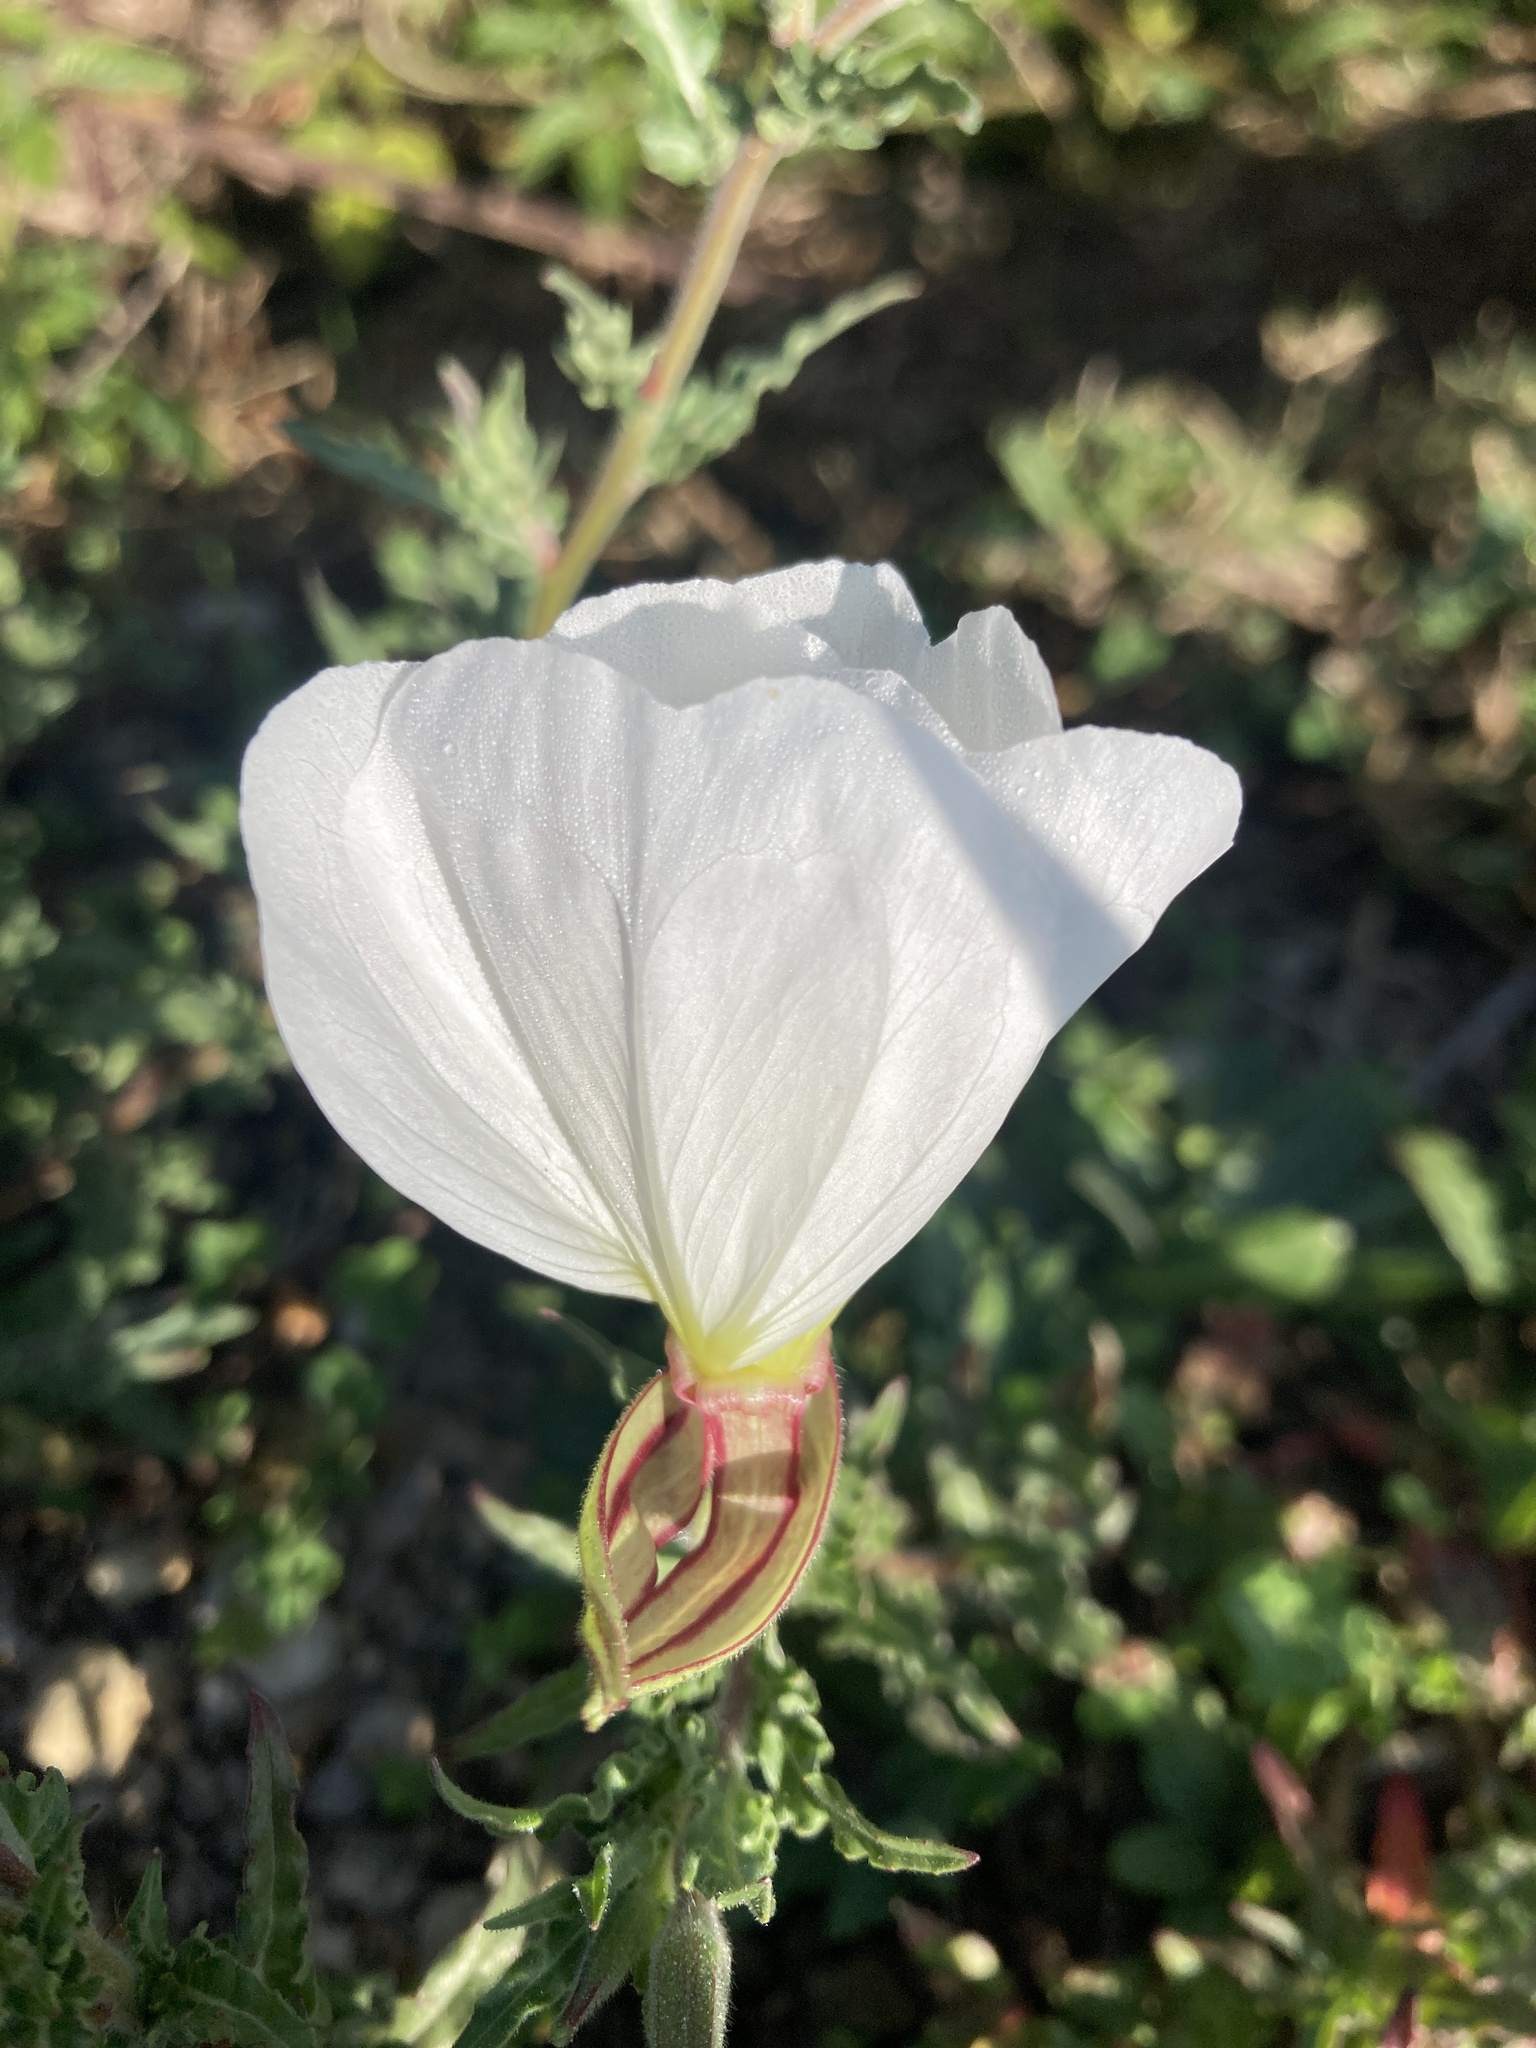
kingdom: Plantae
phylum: Tracheophyta
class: Magnoliopsida
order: Myrtales
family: Onagraceae
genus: Oenothera
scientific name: Oenothera tetraptera
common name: Four-wing evening-primrose
